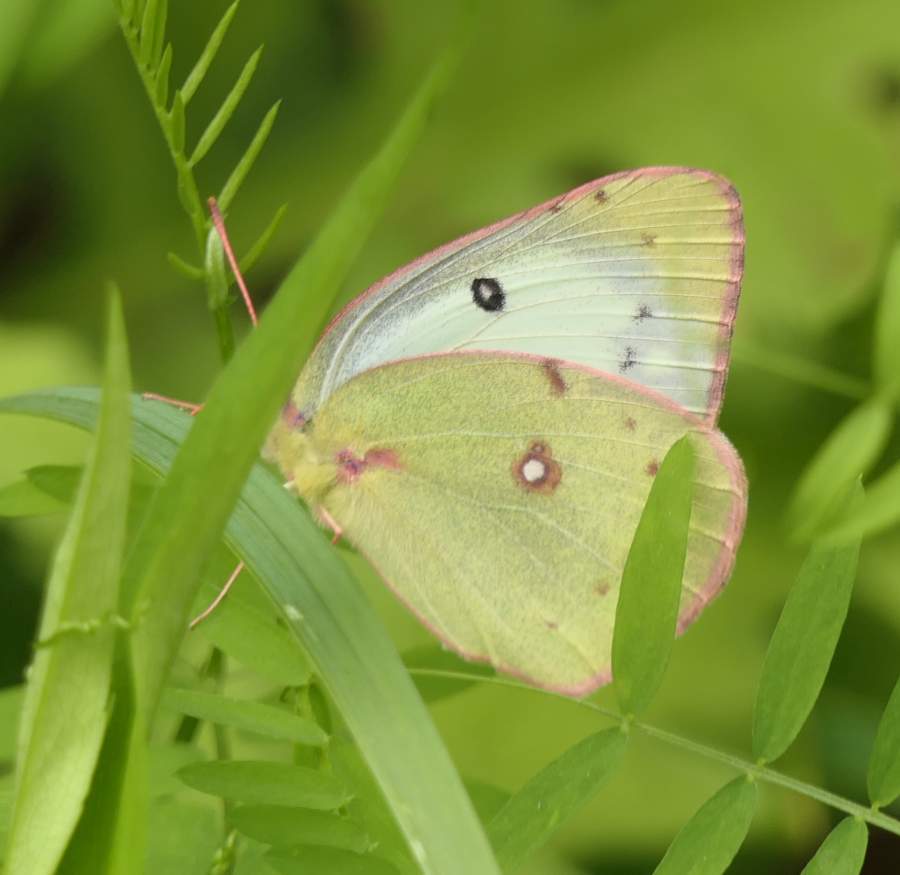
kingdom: Animalia
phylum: Arthropoda
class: Insecta
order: Lepidoptera
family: Pieridae
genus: Colias
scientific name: Colias philodice
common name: Clouded sulphur
